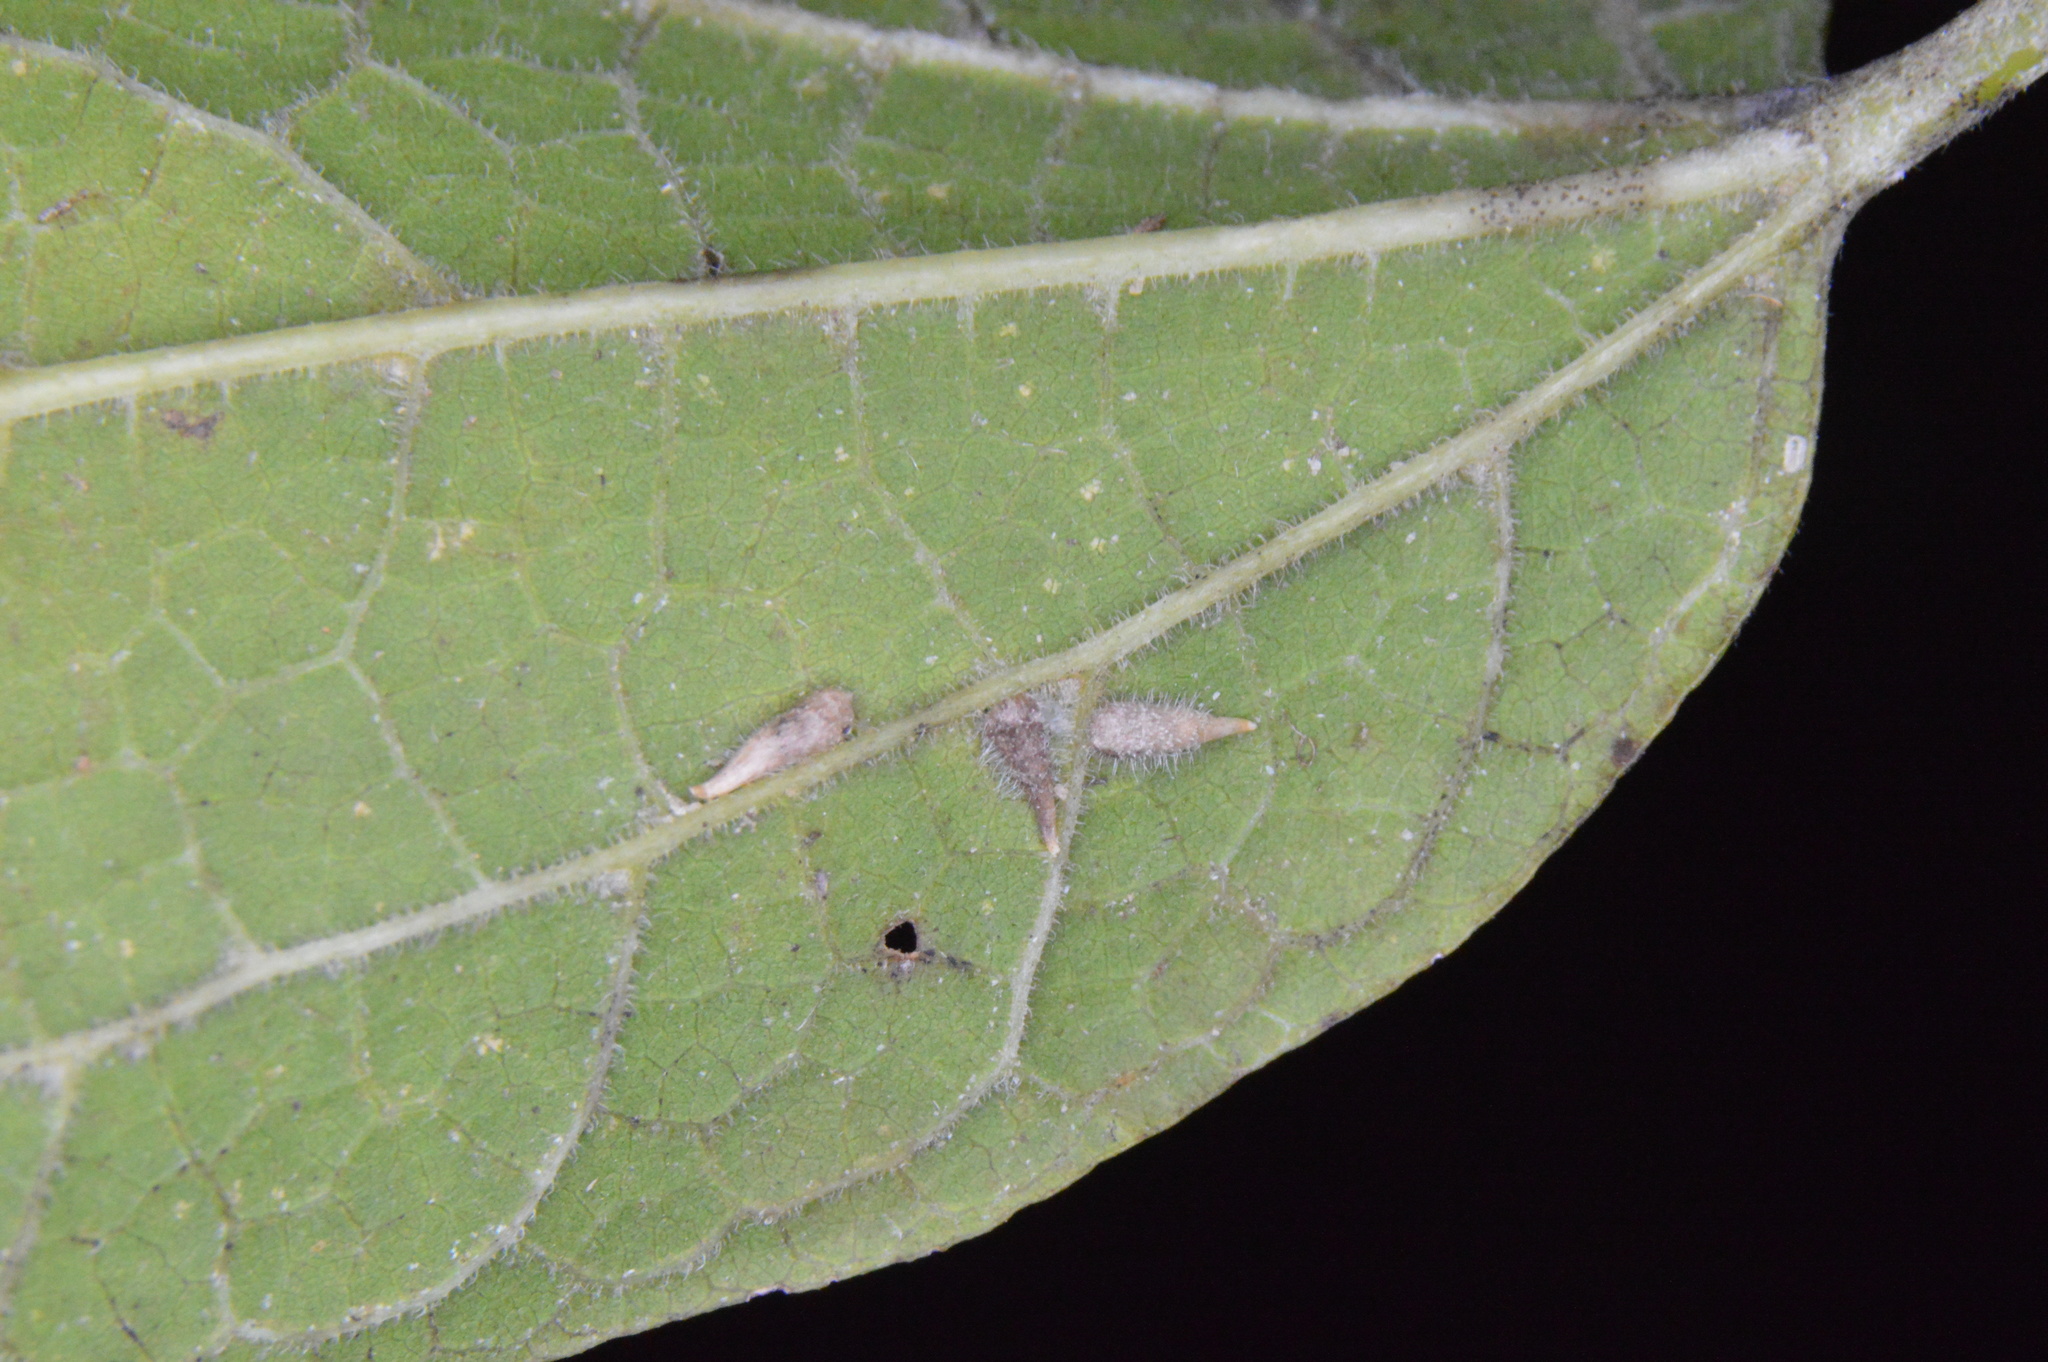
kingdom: Animalia
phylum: Arthropoda
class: Insecta
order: Diptera
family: Cecidomyiidae
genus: Celticecis
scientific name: Celticecis supina
